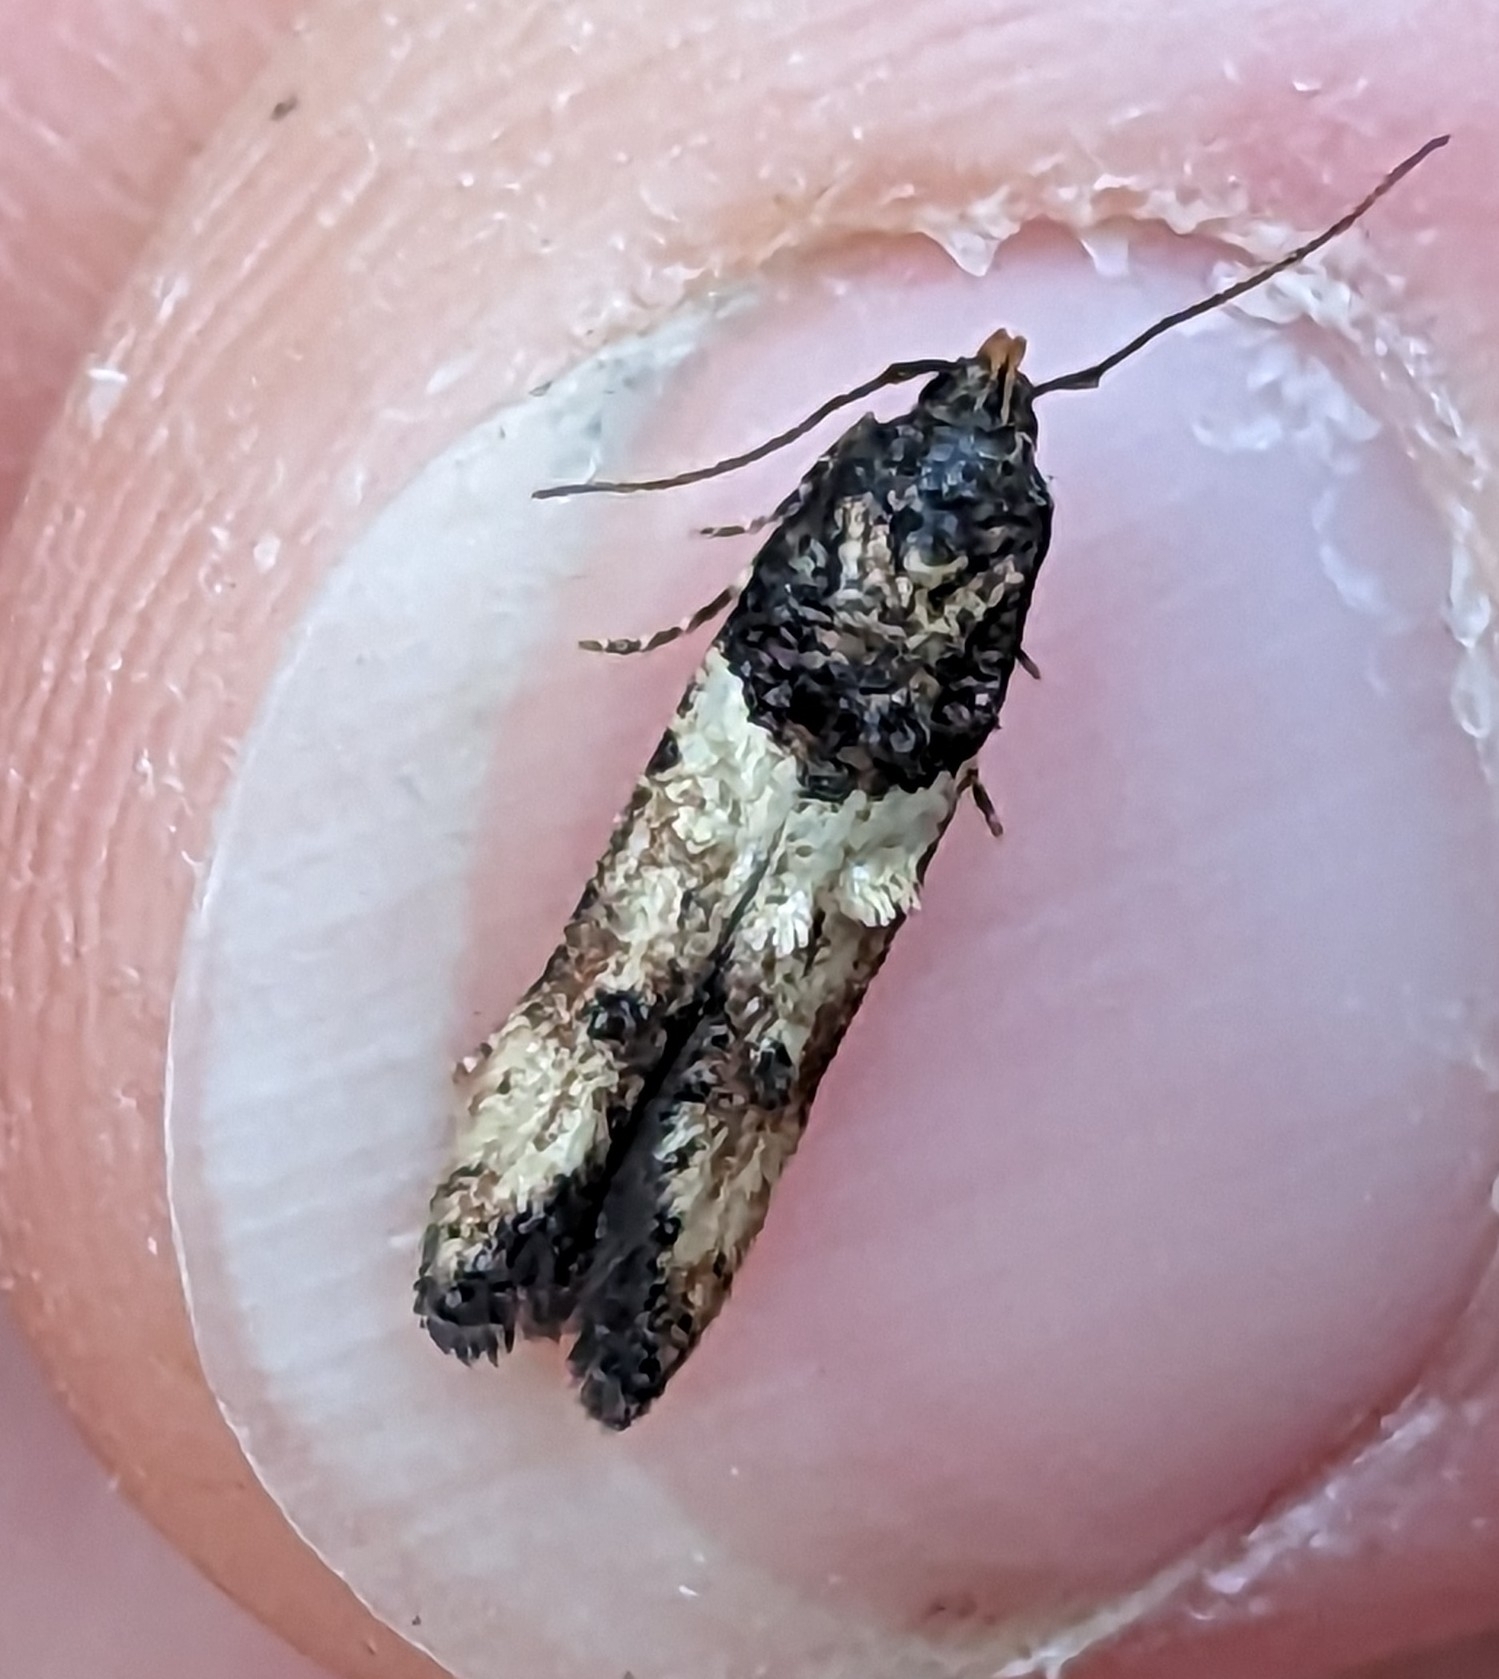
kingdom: Animalia
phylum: Arthropoda
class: Insecta
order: Lepidoptera
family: Cosmopterigidae
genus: Walshia
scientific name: Walshia miscecolorella
